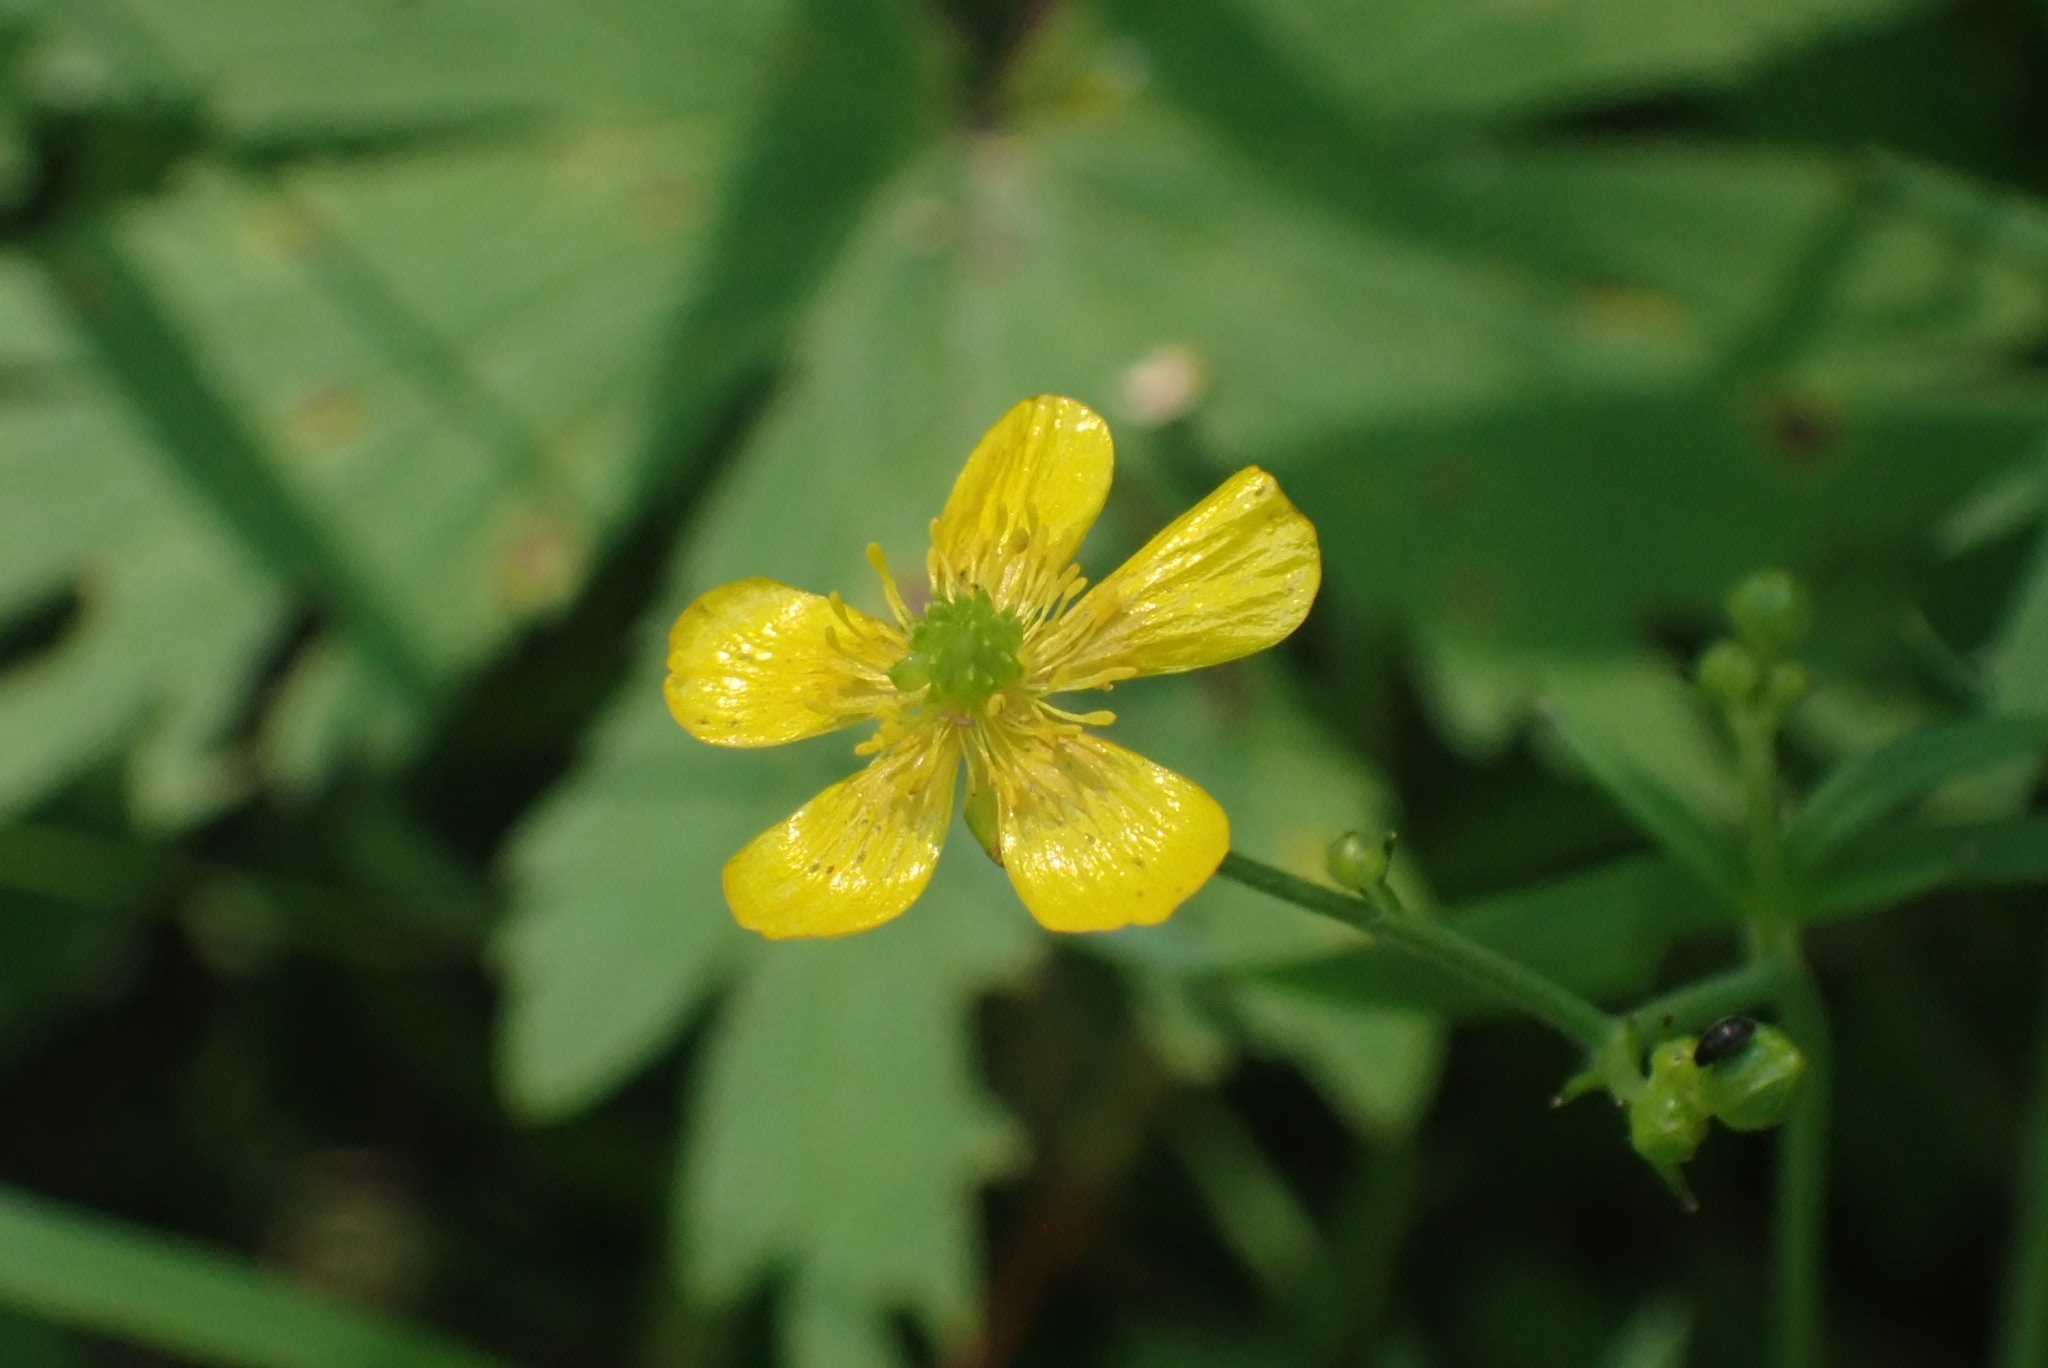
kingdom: Plantae
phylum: Tracheophyta
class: Magnoliopsida
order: Ranunculales
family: Ranunculaceae
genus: Ranunculus
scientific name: Ranunculus acris
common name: Meadow buttercup
